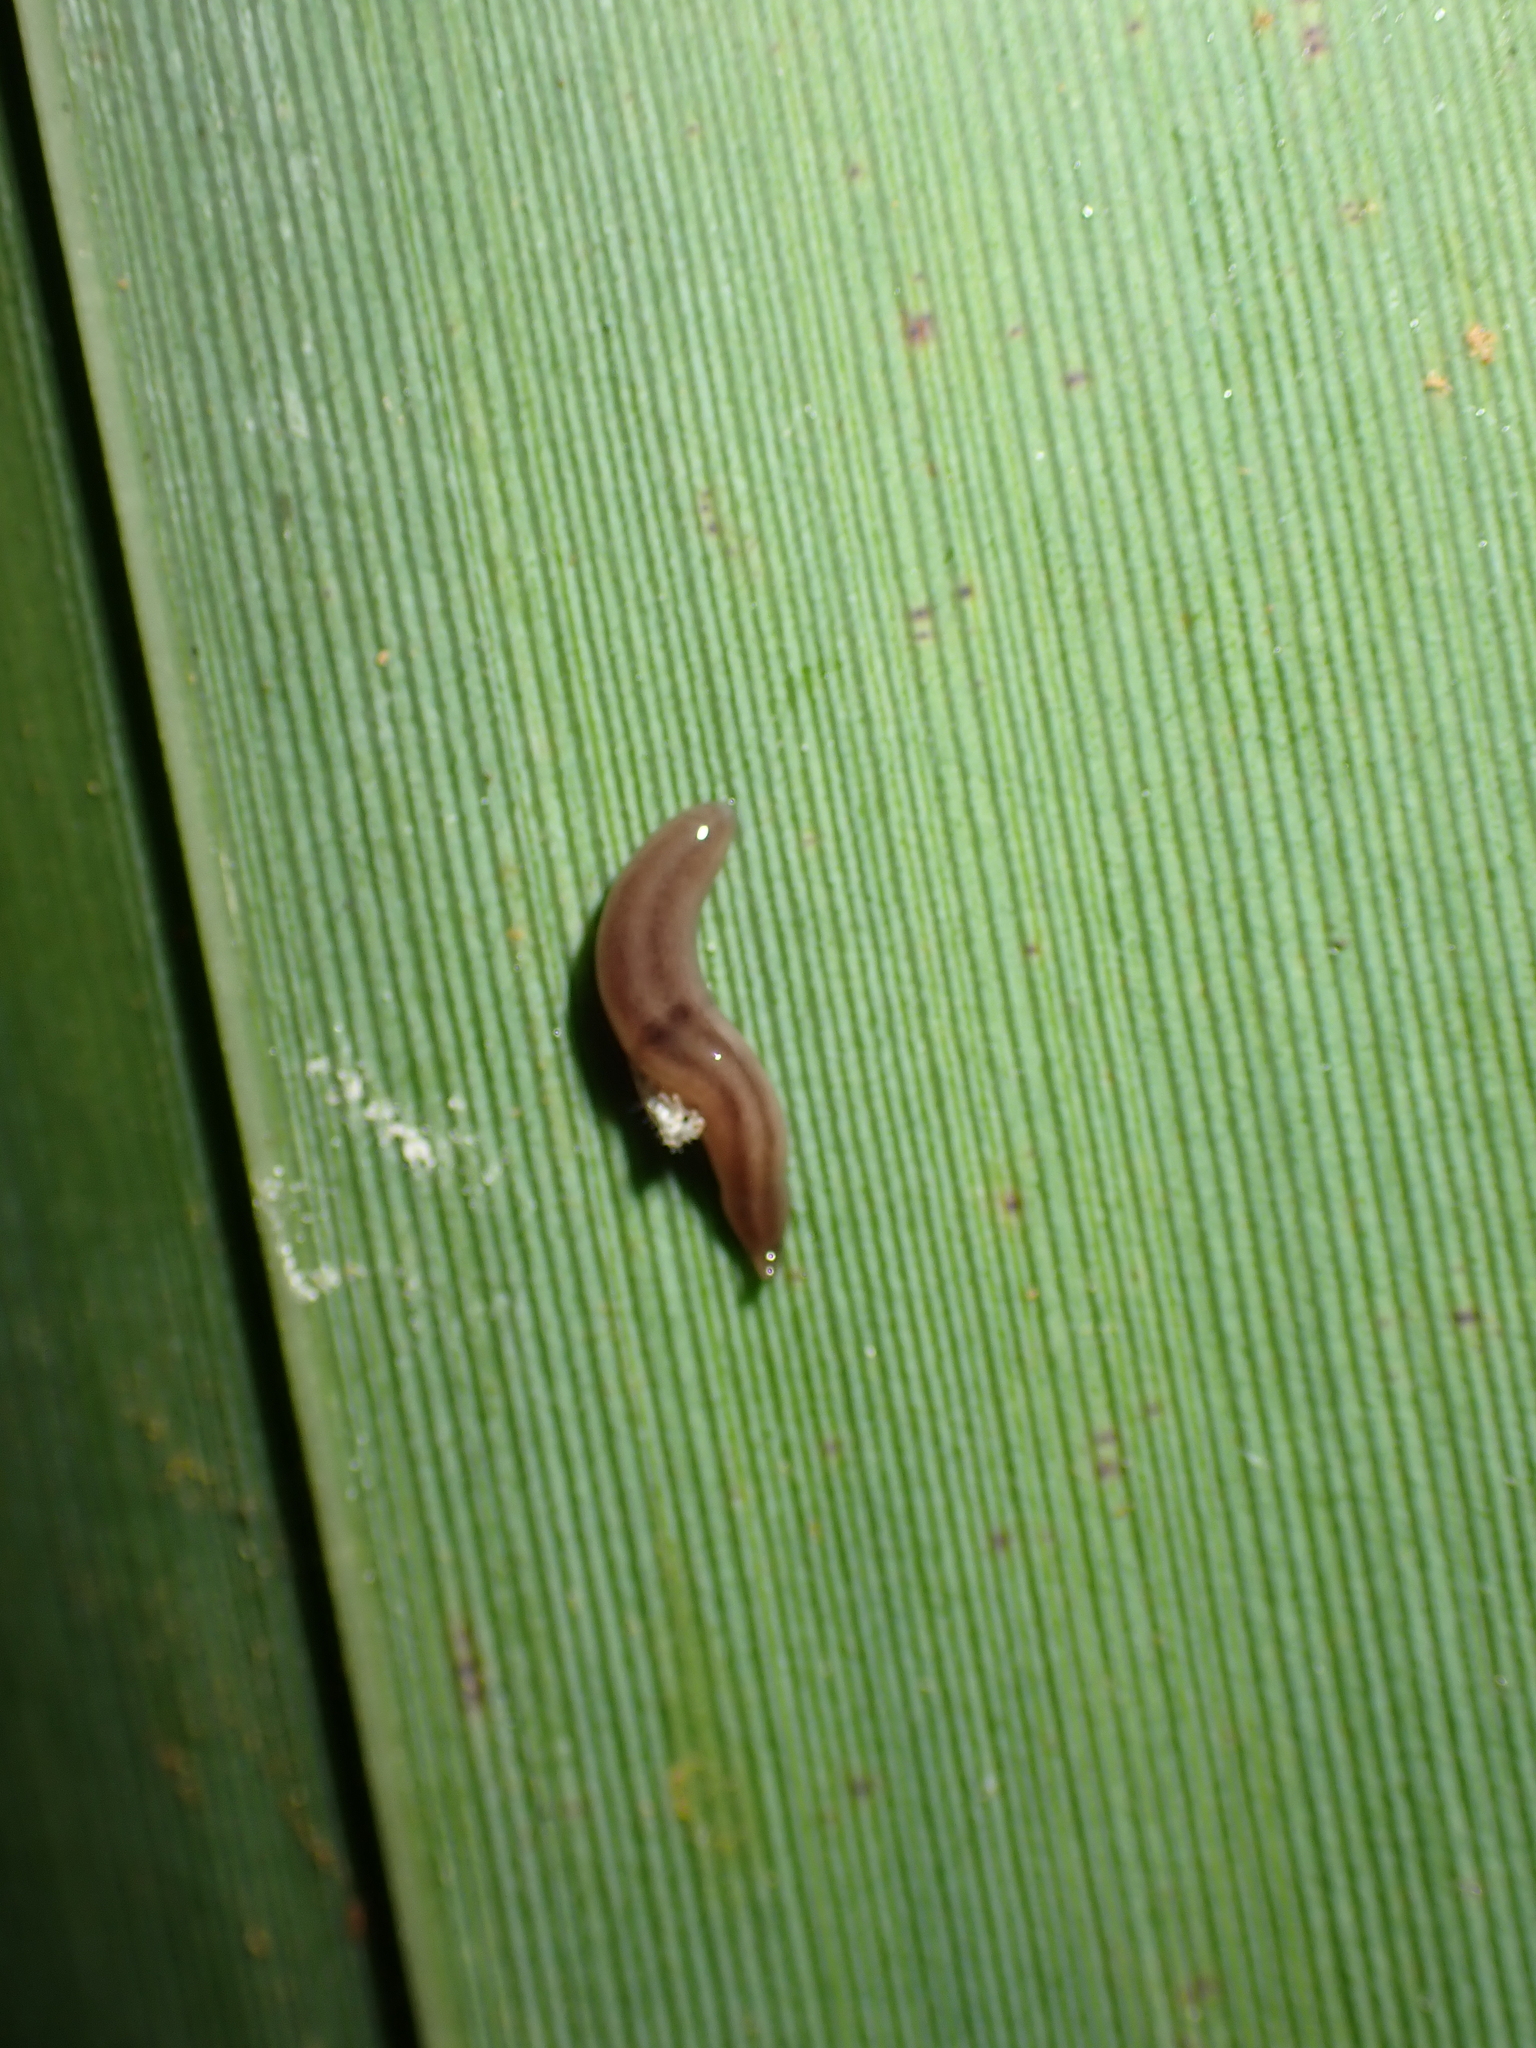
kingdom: Animalia
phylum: Platyhelminthes
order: Tricladida
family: Geoplanidae
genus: Rhynchodemus
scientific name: Rhynchodemus sylvaticus
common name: A flatworm
